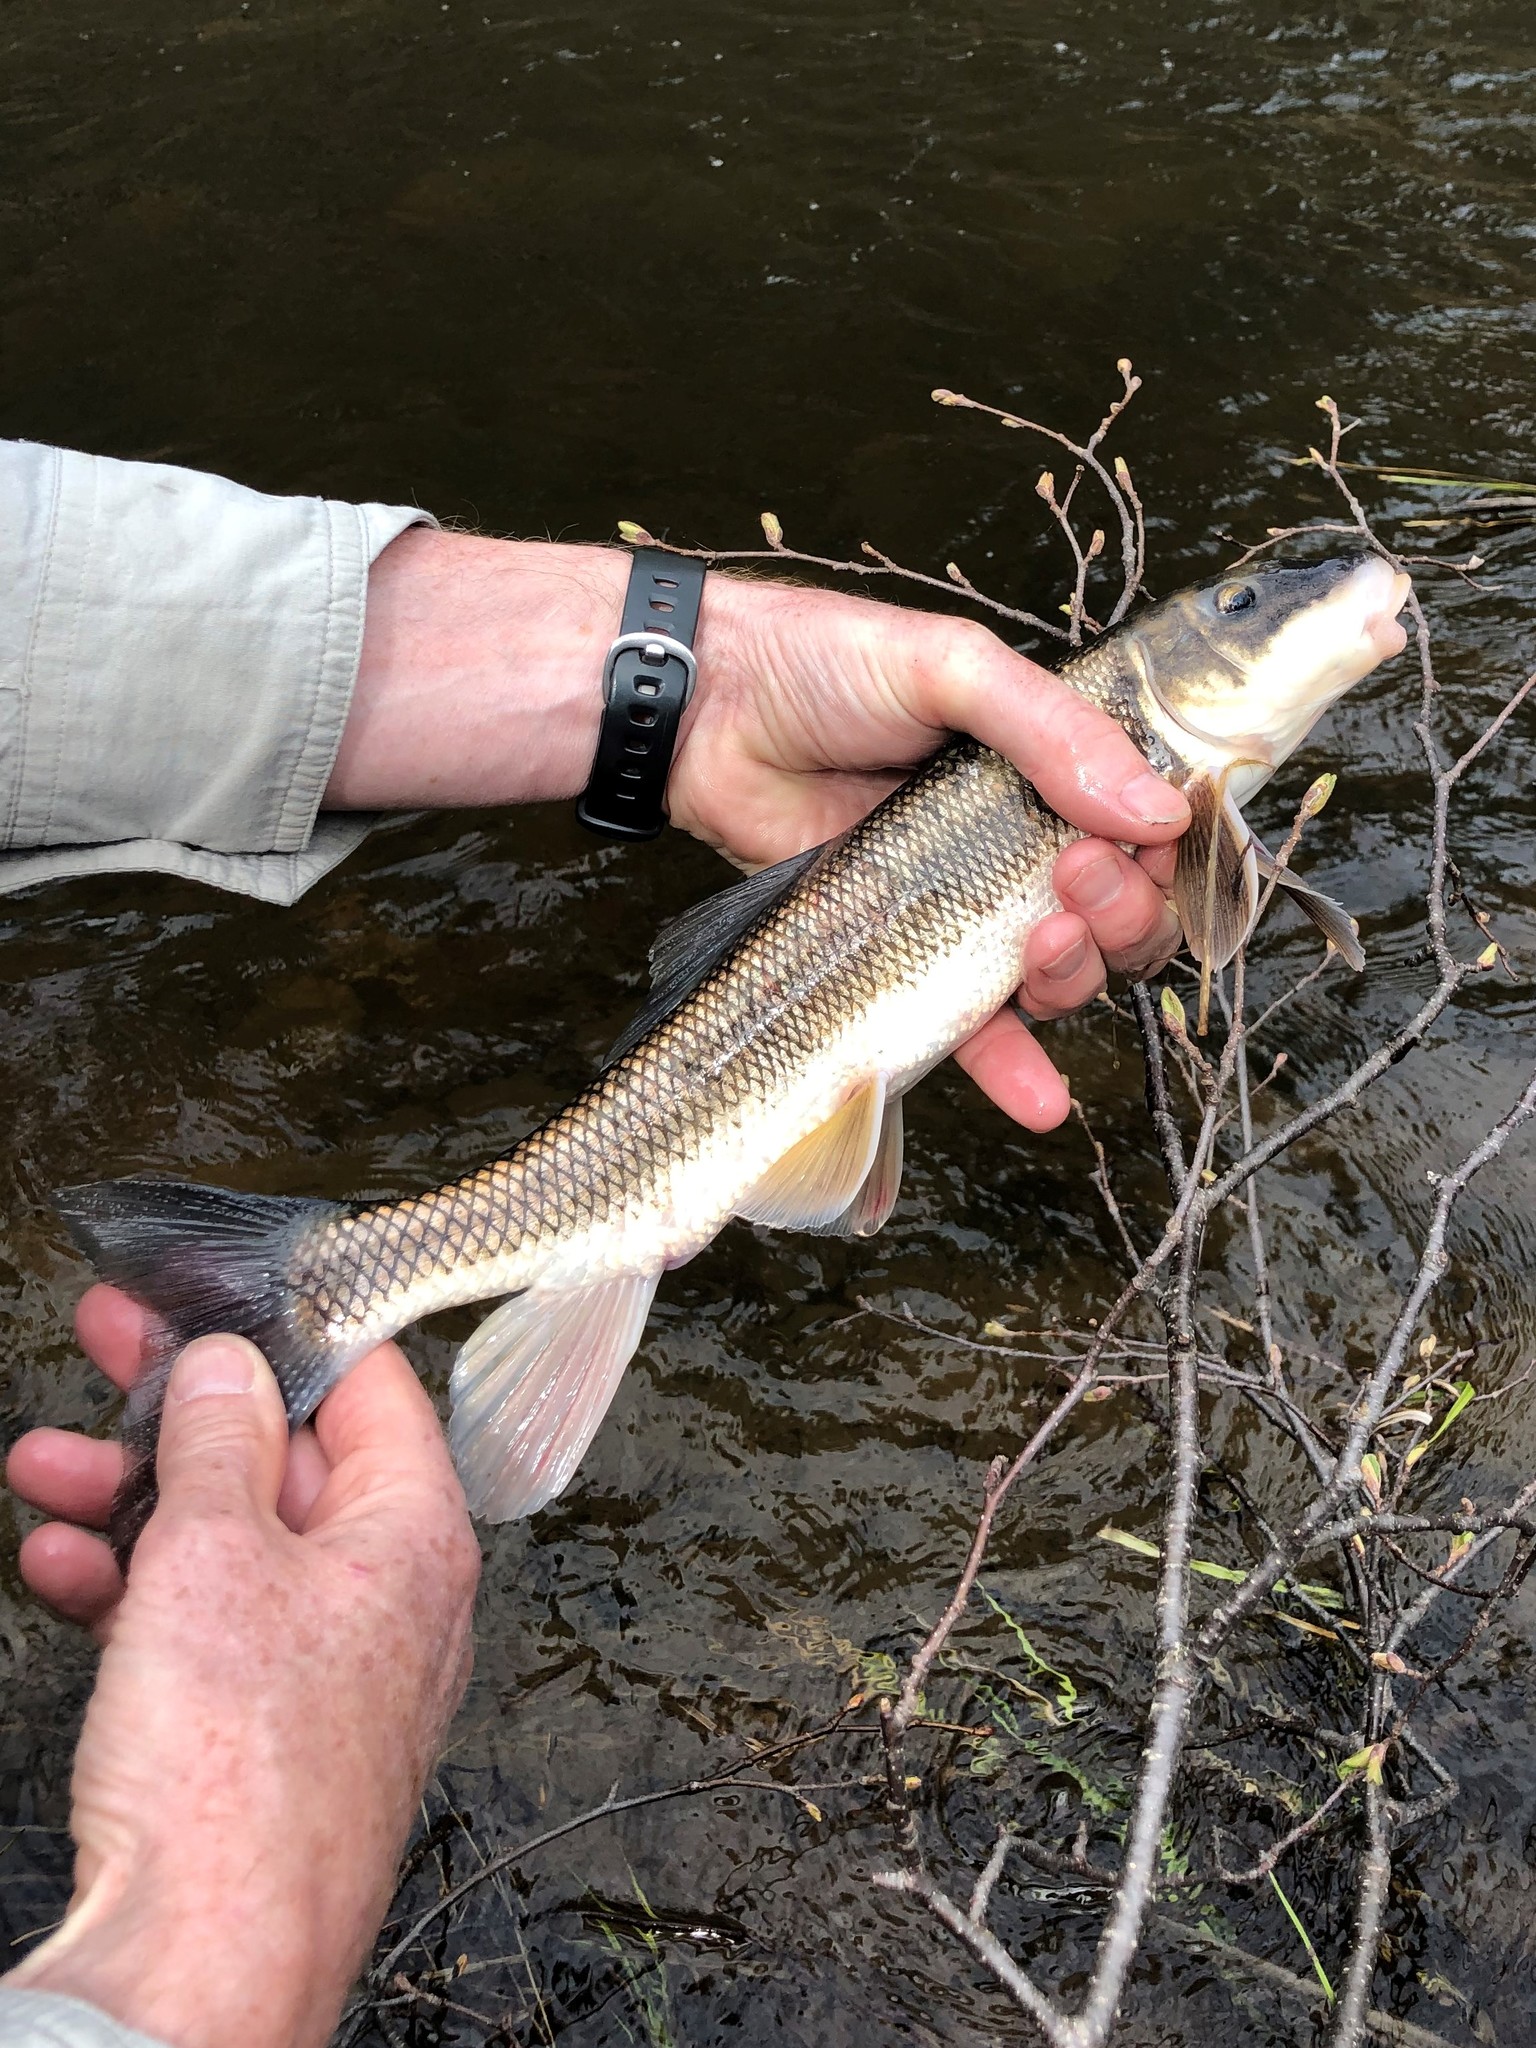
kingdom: Animalia
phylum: Chordata
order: Cypriniformes
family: Catostomidae
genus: Catostomus
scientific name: Catostomus commersonii
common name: White sucker
